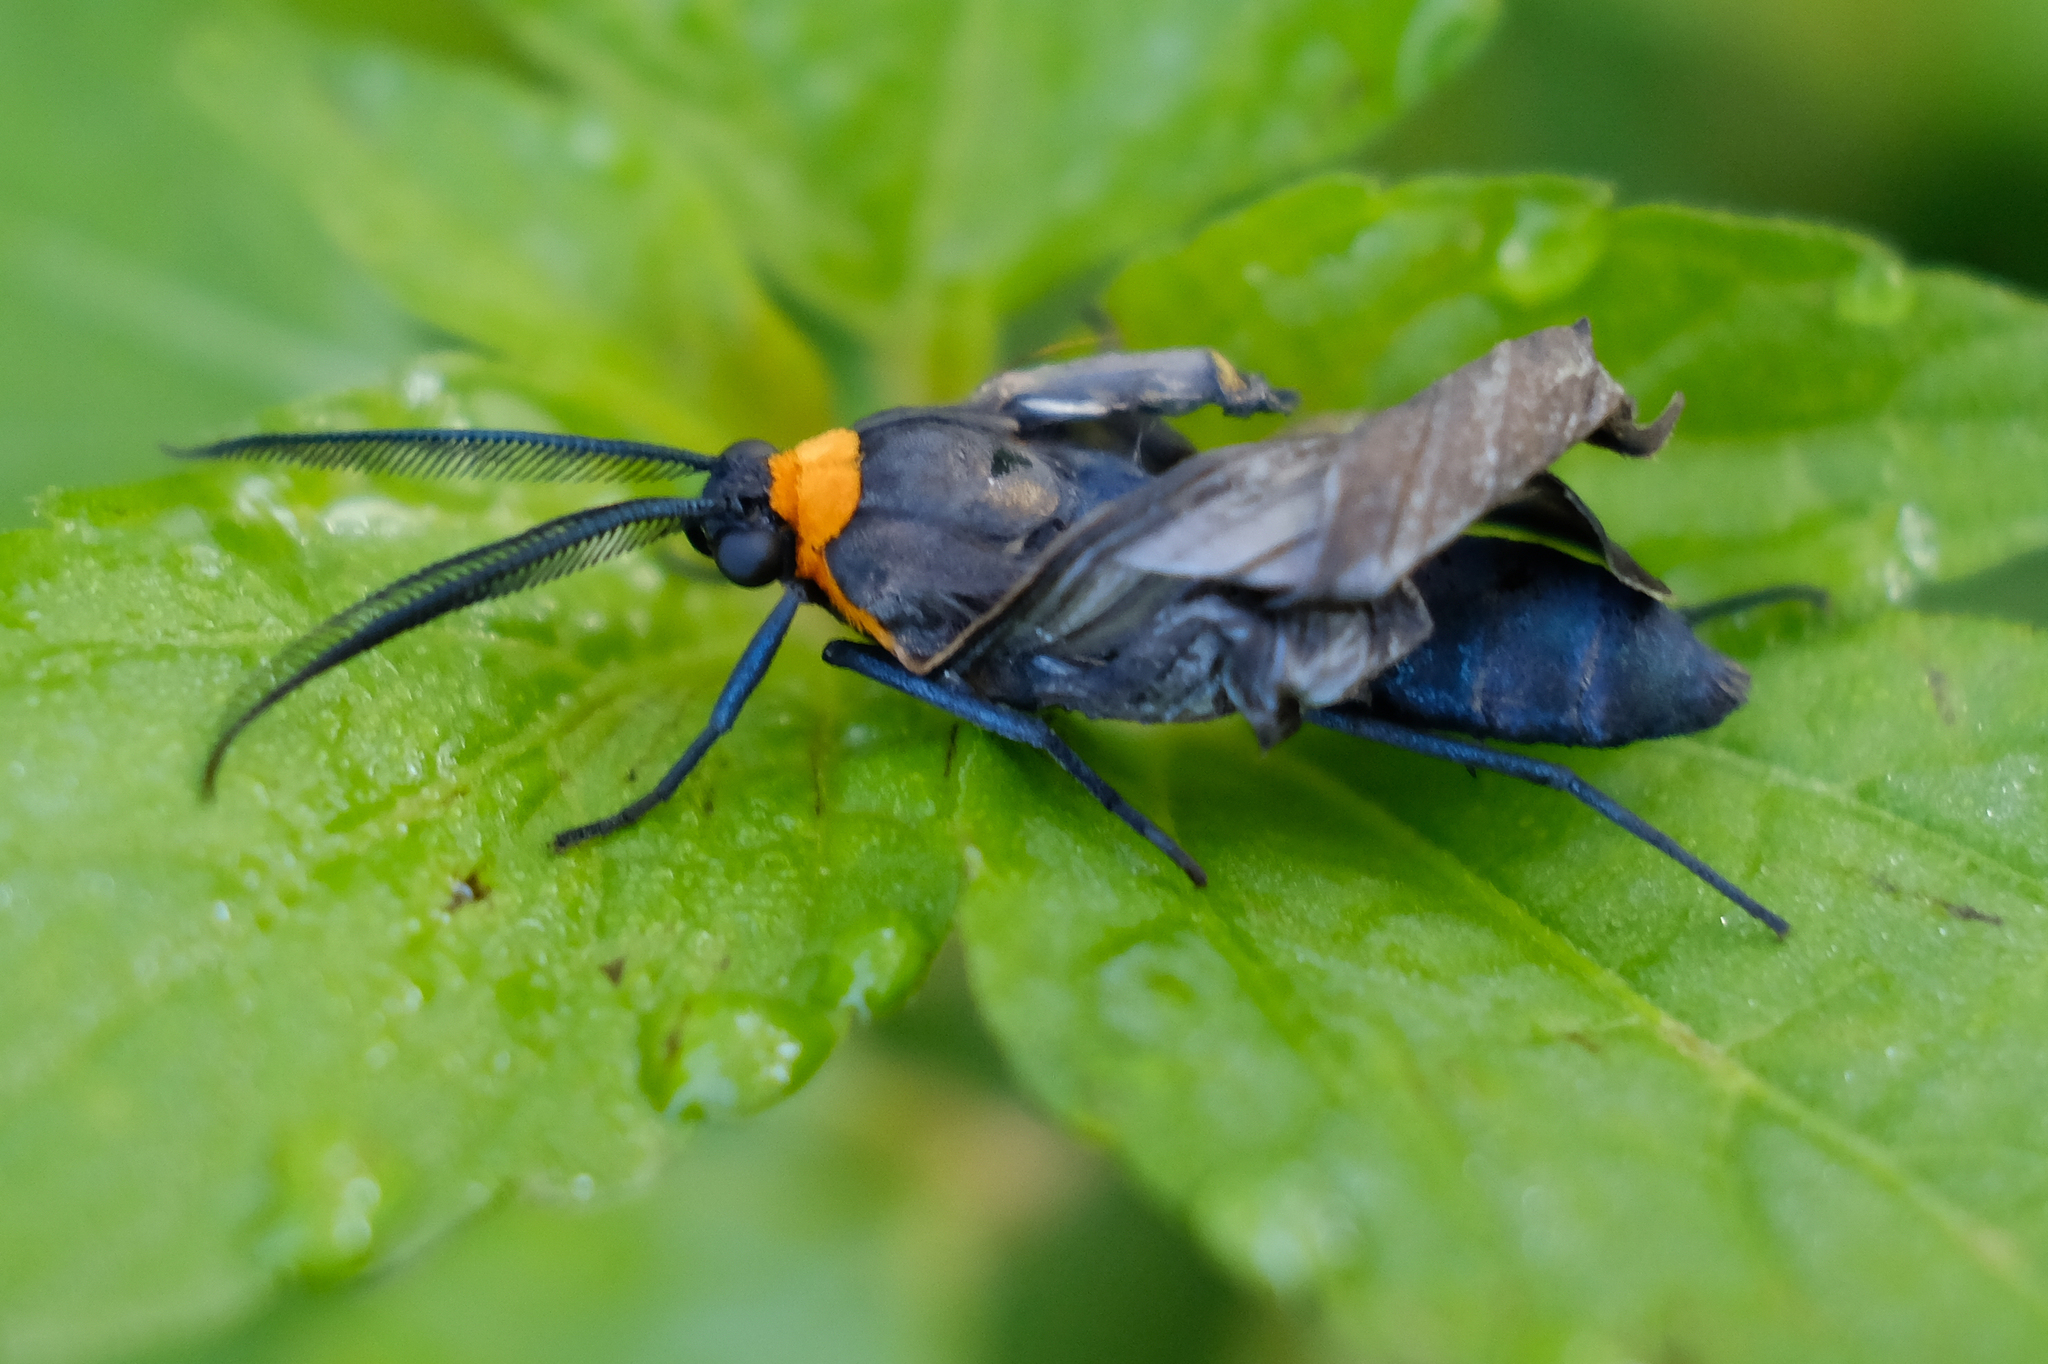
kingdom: Animalia
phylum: Arthropoda
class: Insecta
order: Lepidoptera
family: Erebidae
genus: Cisseps
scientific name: Cisseps fulvicollis
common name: Yellow-collared scape moth
